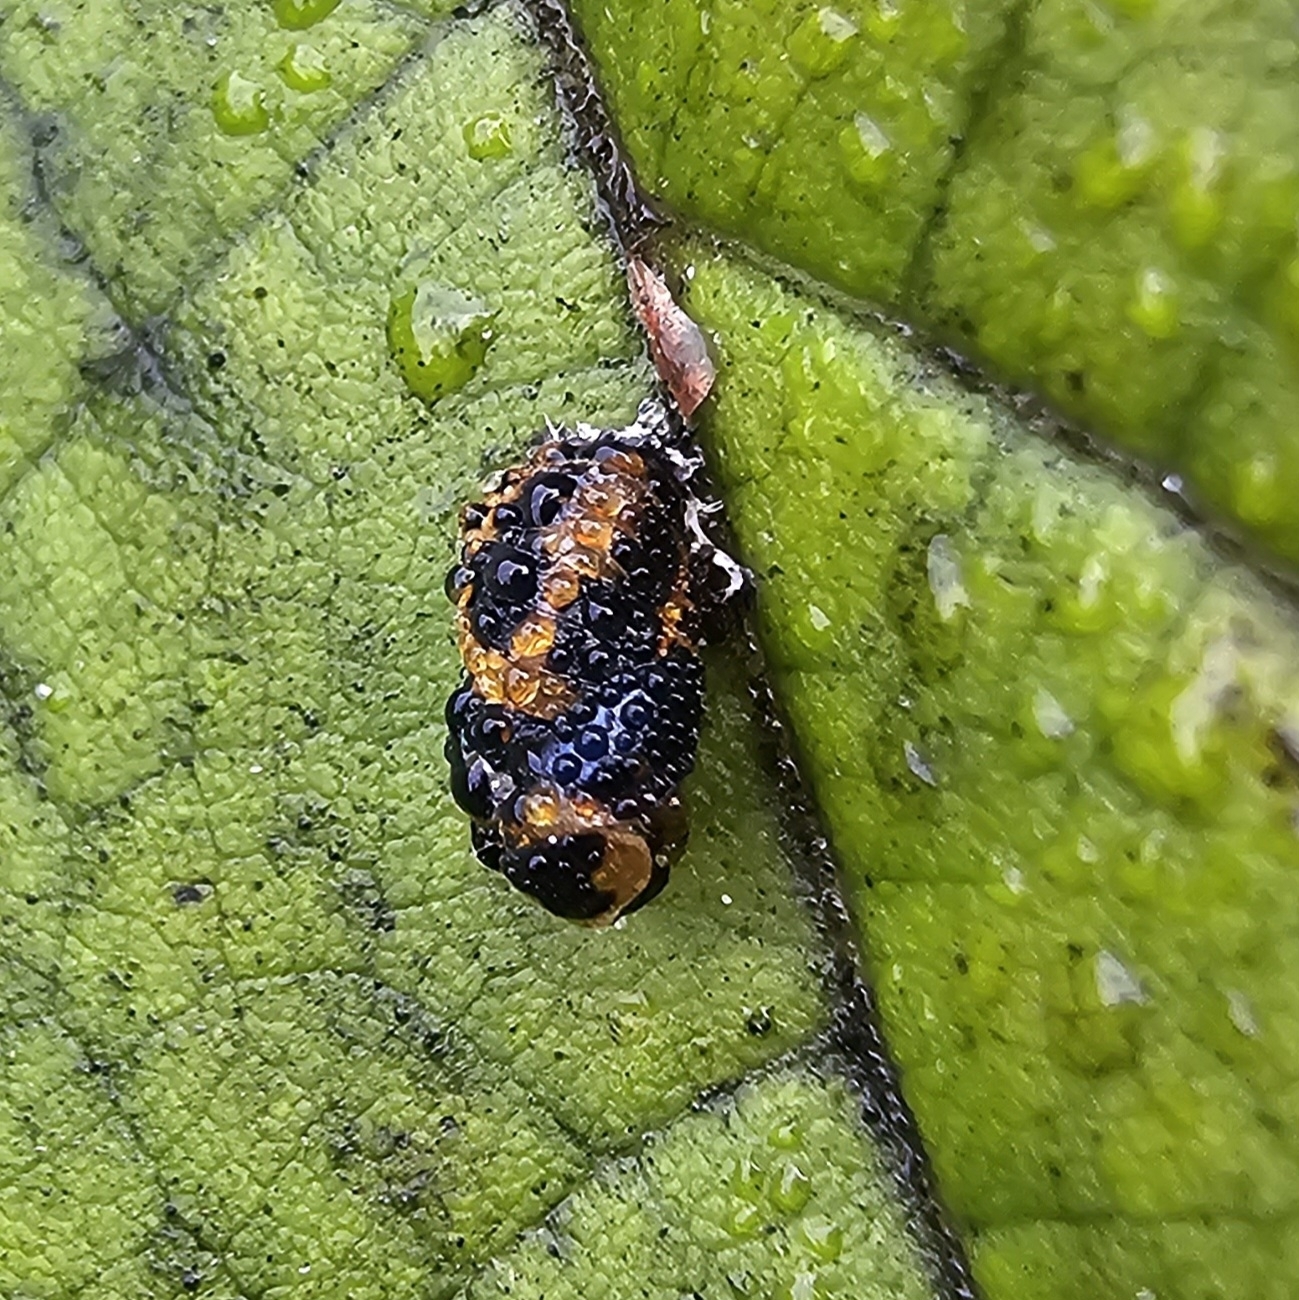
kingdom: Animalia
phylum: Arthropoda
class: Insecta
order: Coleoptera
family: Coccinellidae
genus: Harmonia
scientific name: Harmonia axyridis
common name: Harlequin ladybird
